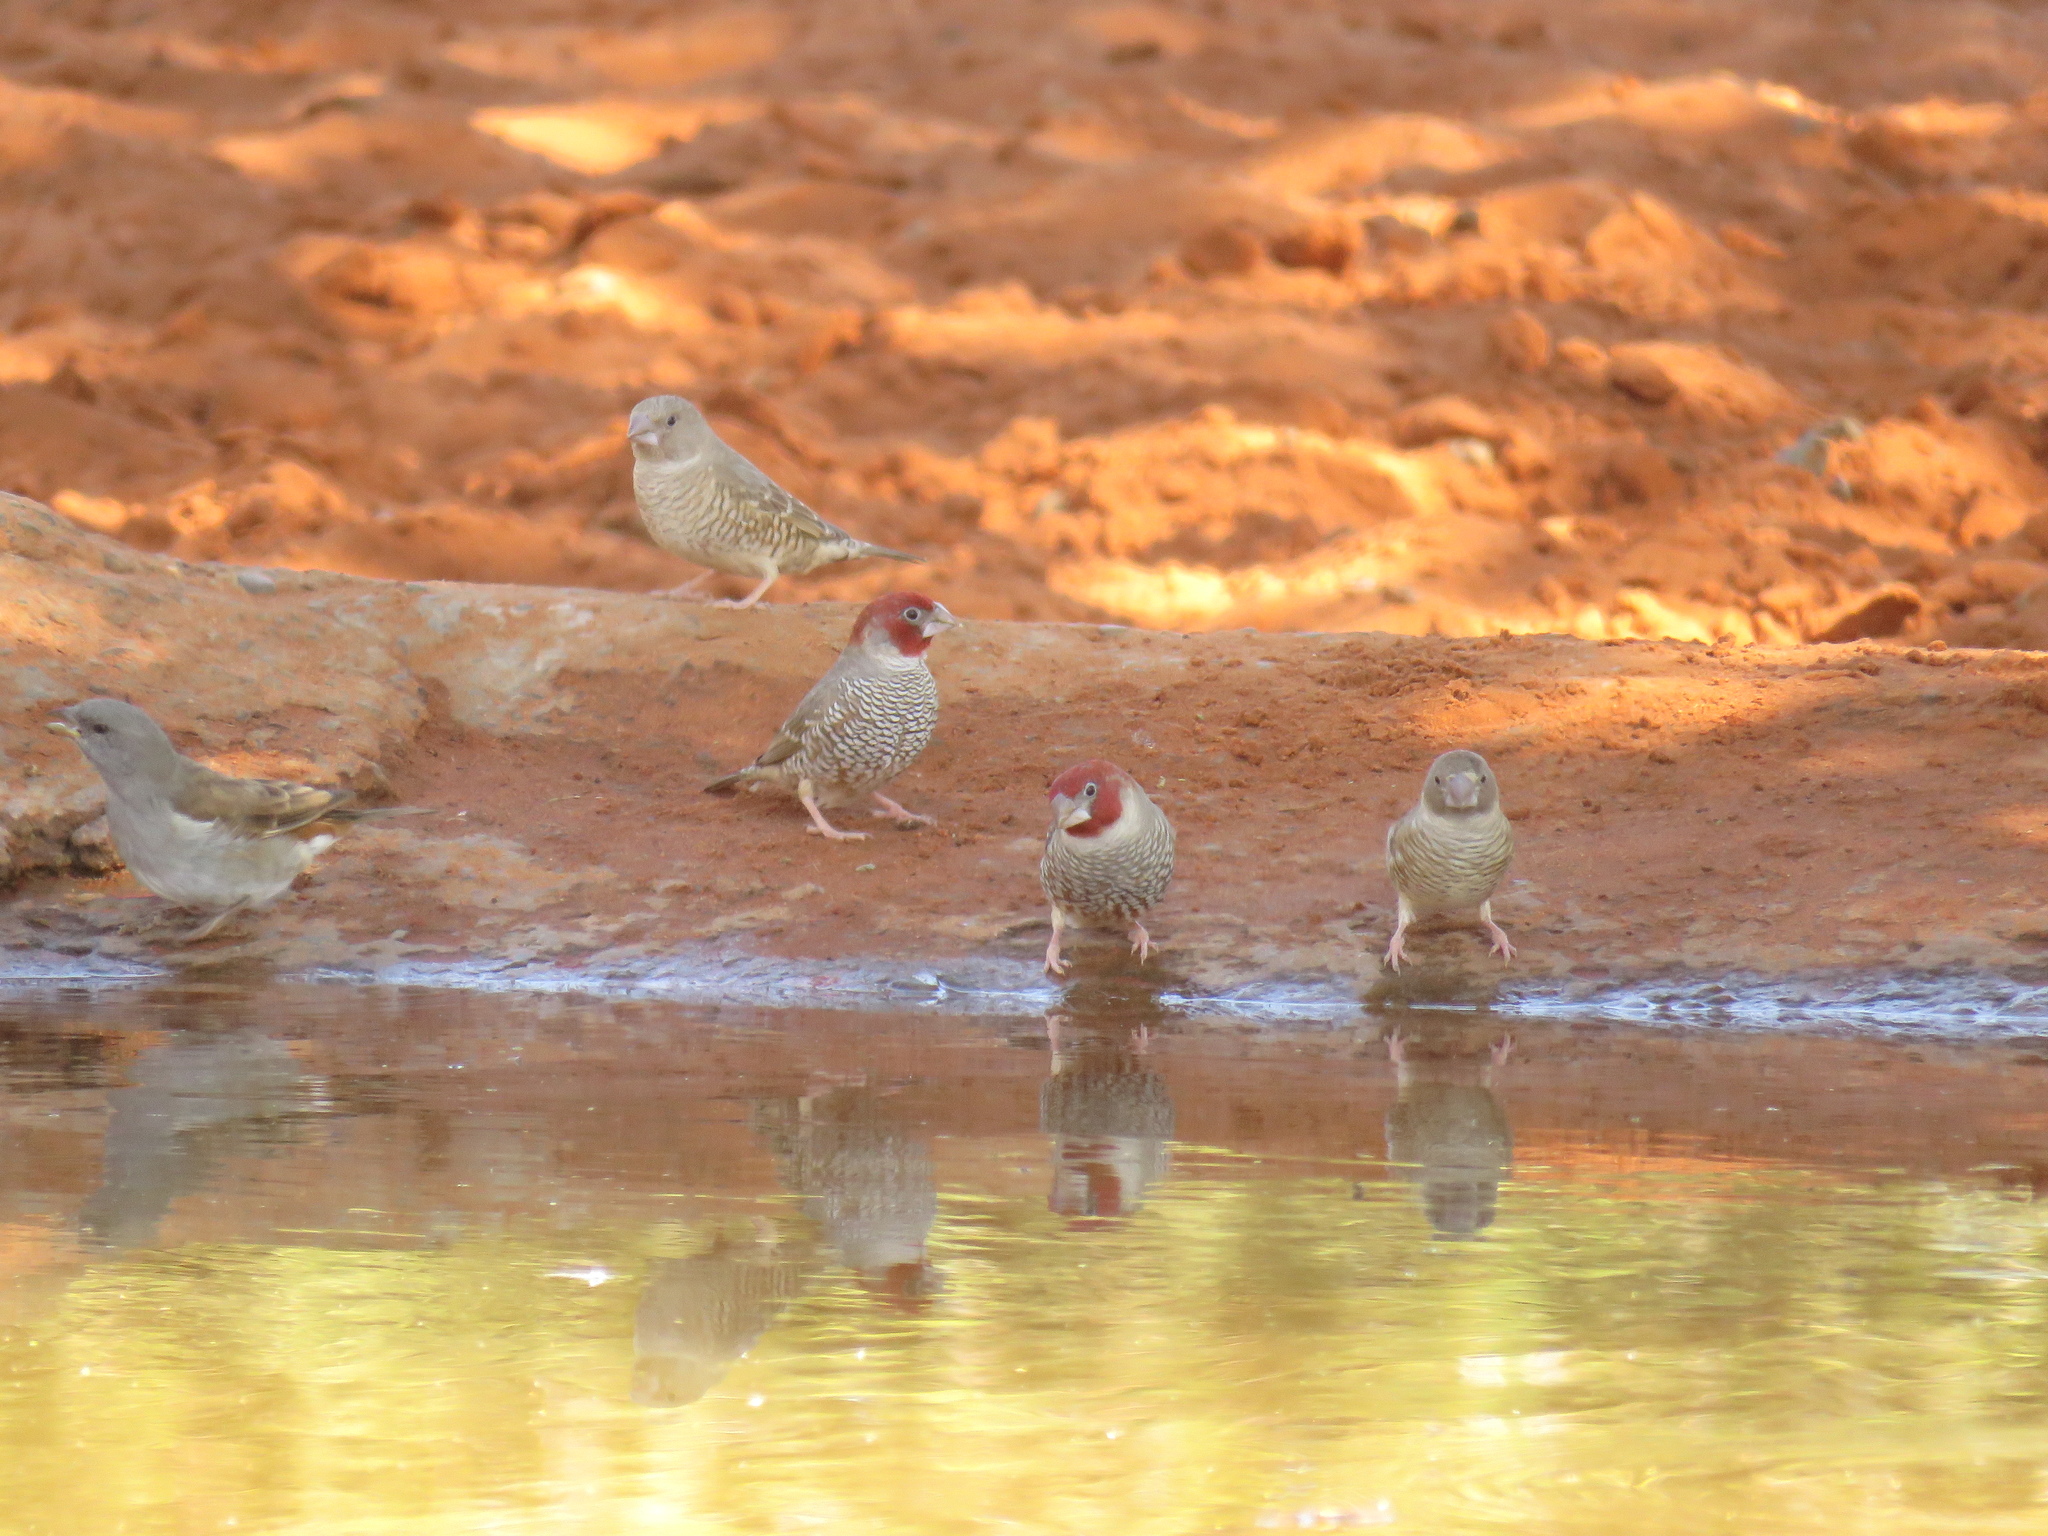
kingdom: Animalia
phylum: Chordata
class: Aves
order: Passeriformes
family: Estrildidae
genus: Amadina
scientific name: Amadina erythrocephala
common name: Red-headed finch
